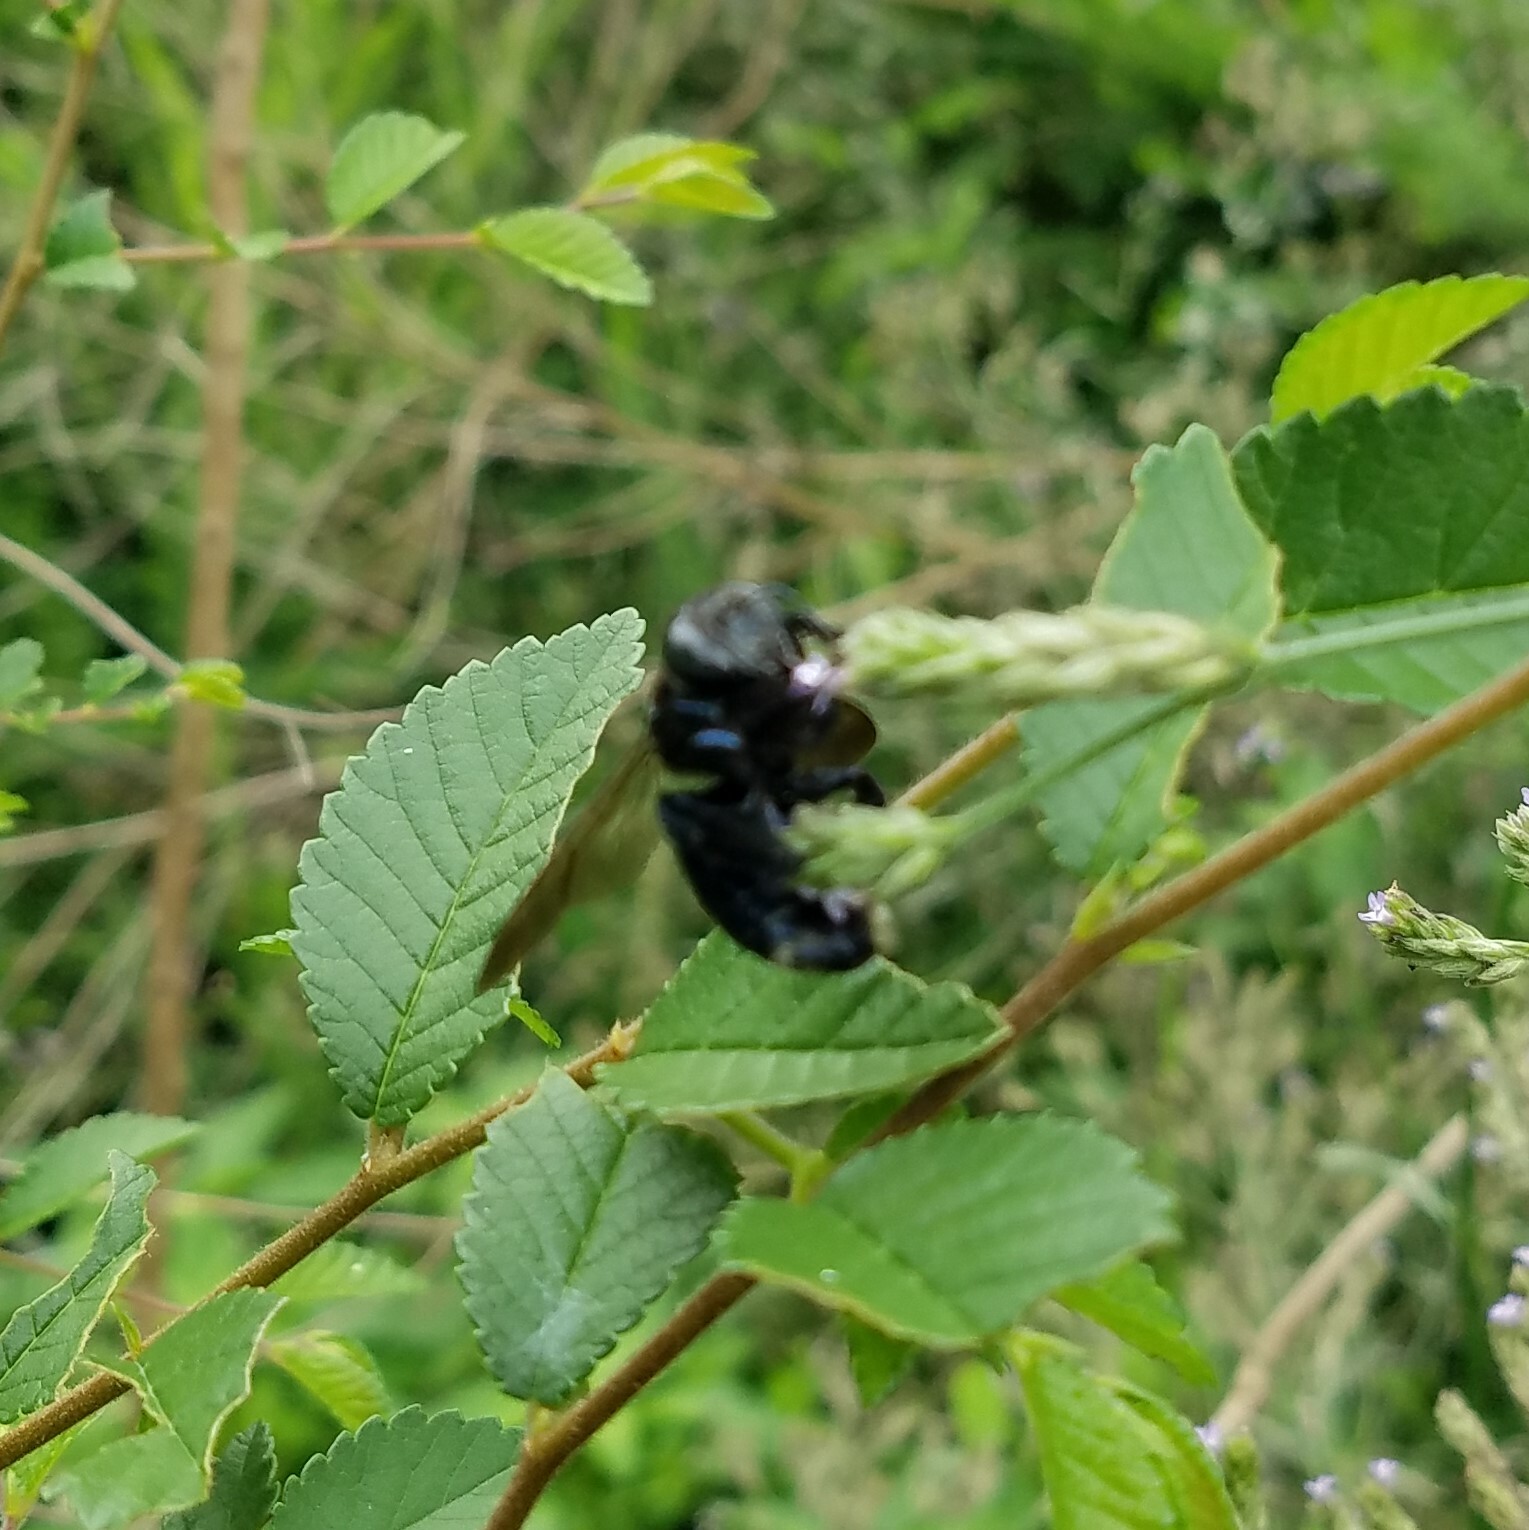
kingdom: Animalia
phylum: Arthropoda
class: Insecta
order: Hymenoptera
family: Apidae
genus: Xylocopa
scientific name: Xylocopa micans
